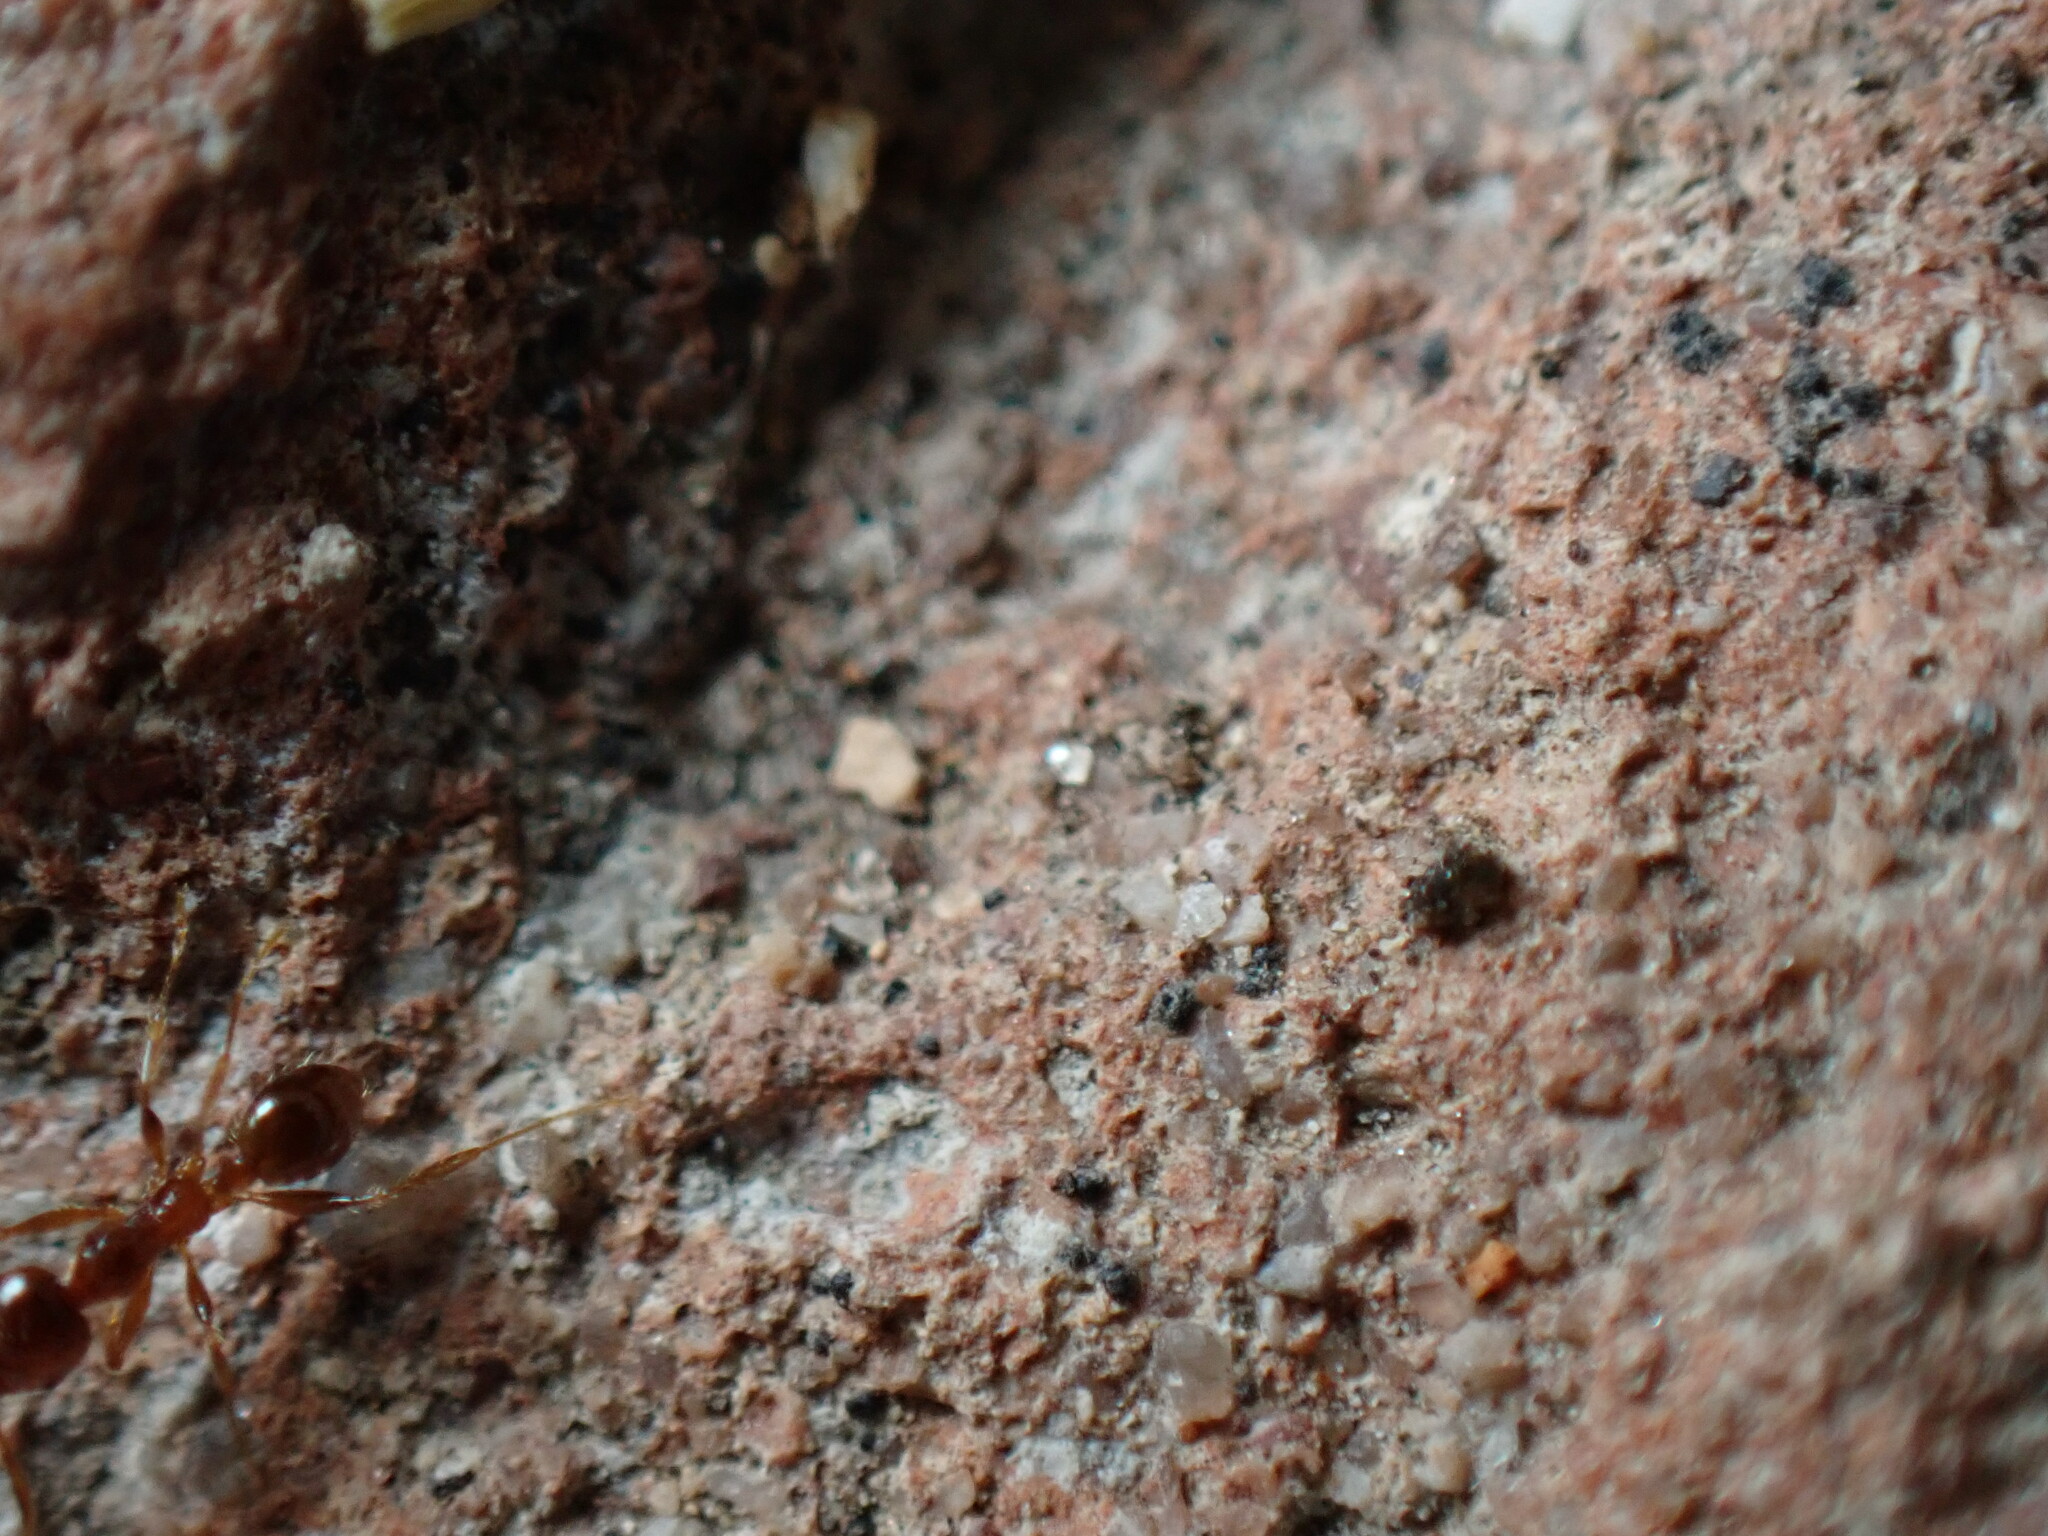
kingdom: Animalia
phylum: Arthropoda
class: Insecta
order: Hymenoptera
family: Formicidae
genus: Pheidole
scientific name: Pheidole pallidula
